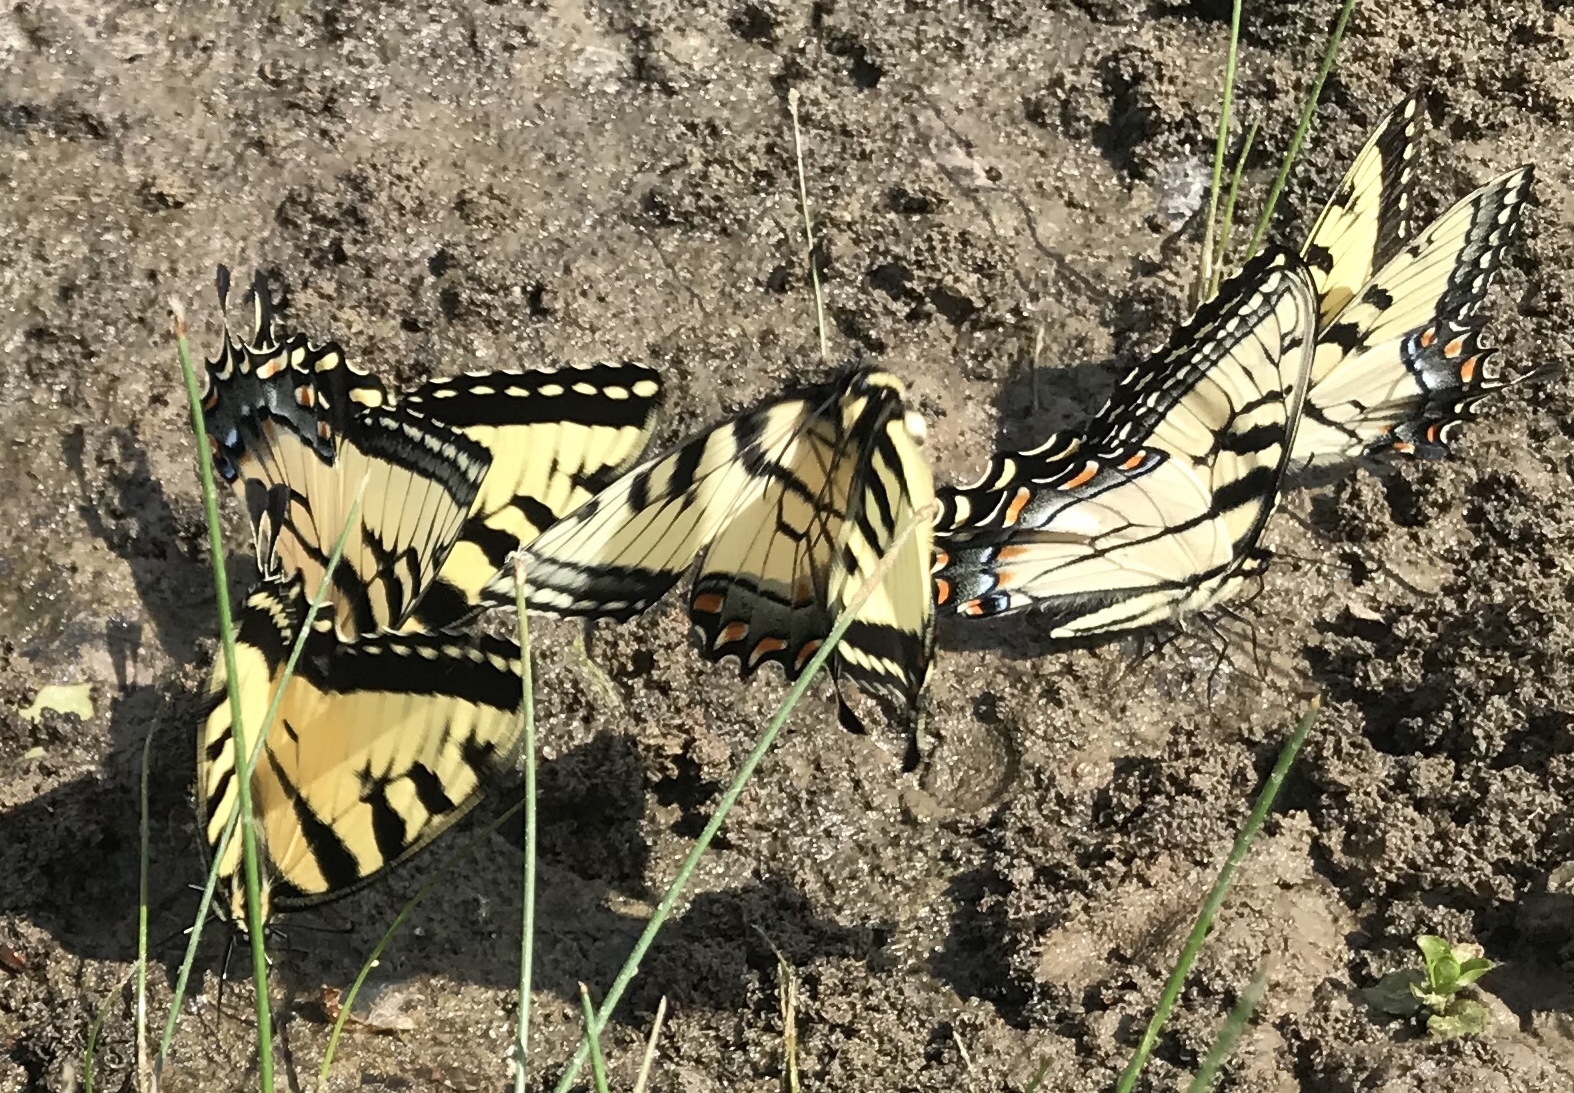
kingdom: Animalia
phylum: Arthropoda
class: Insecta
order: Lepidoptera
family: Papilionidae
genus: Papilio
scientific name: Papilio glaucus
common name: Tiger swallowtail
